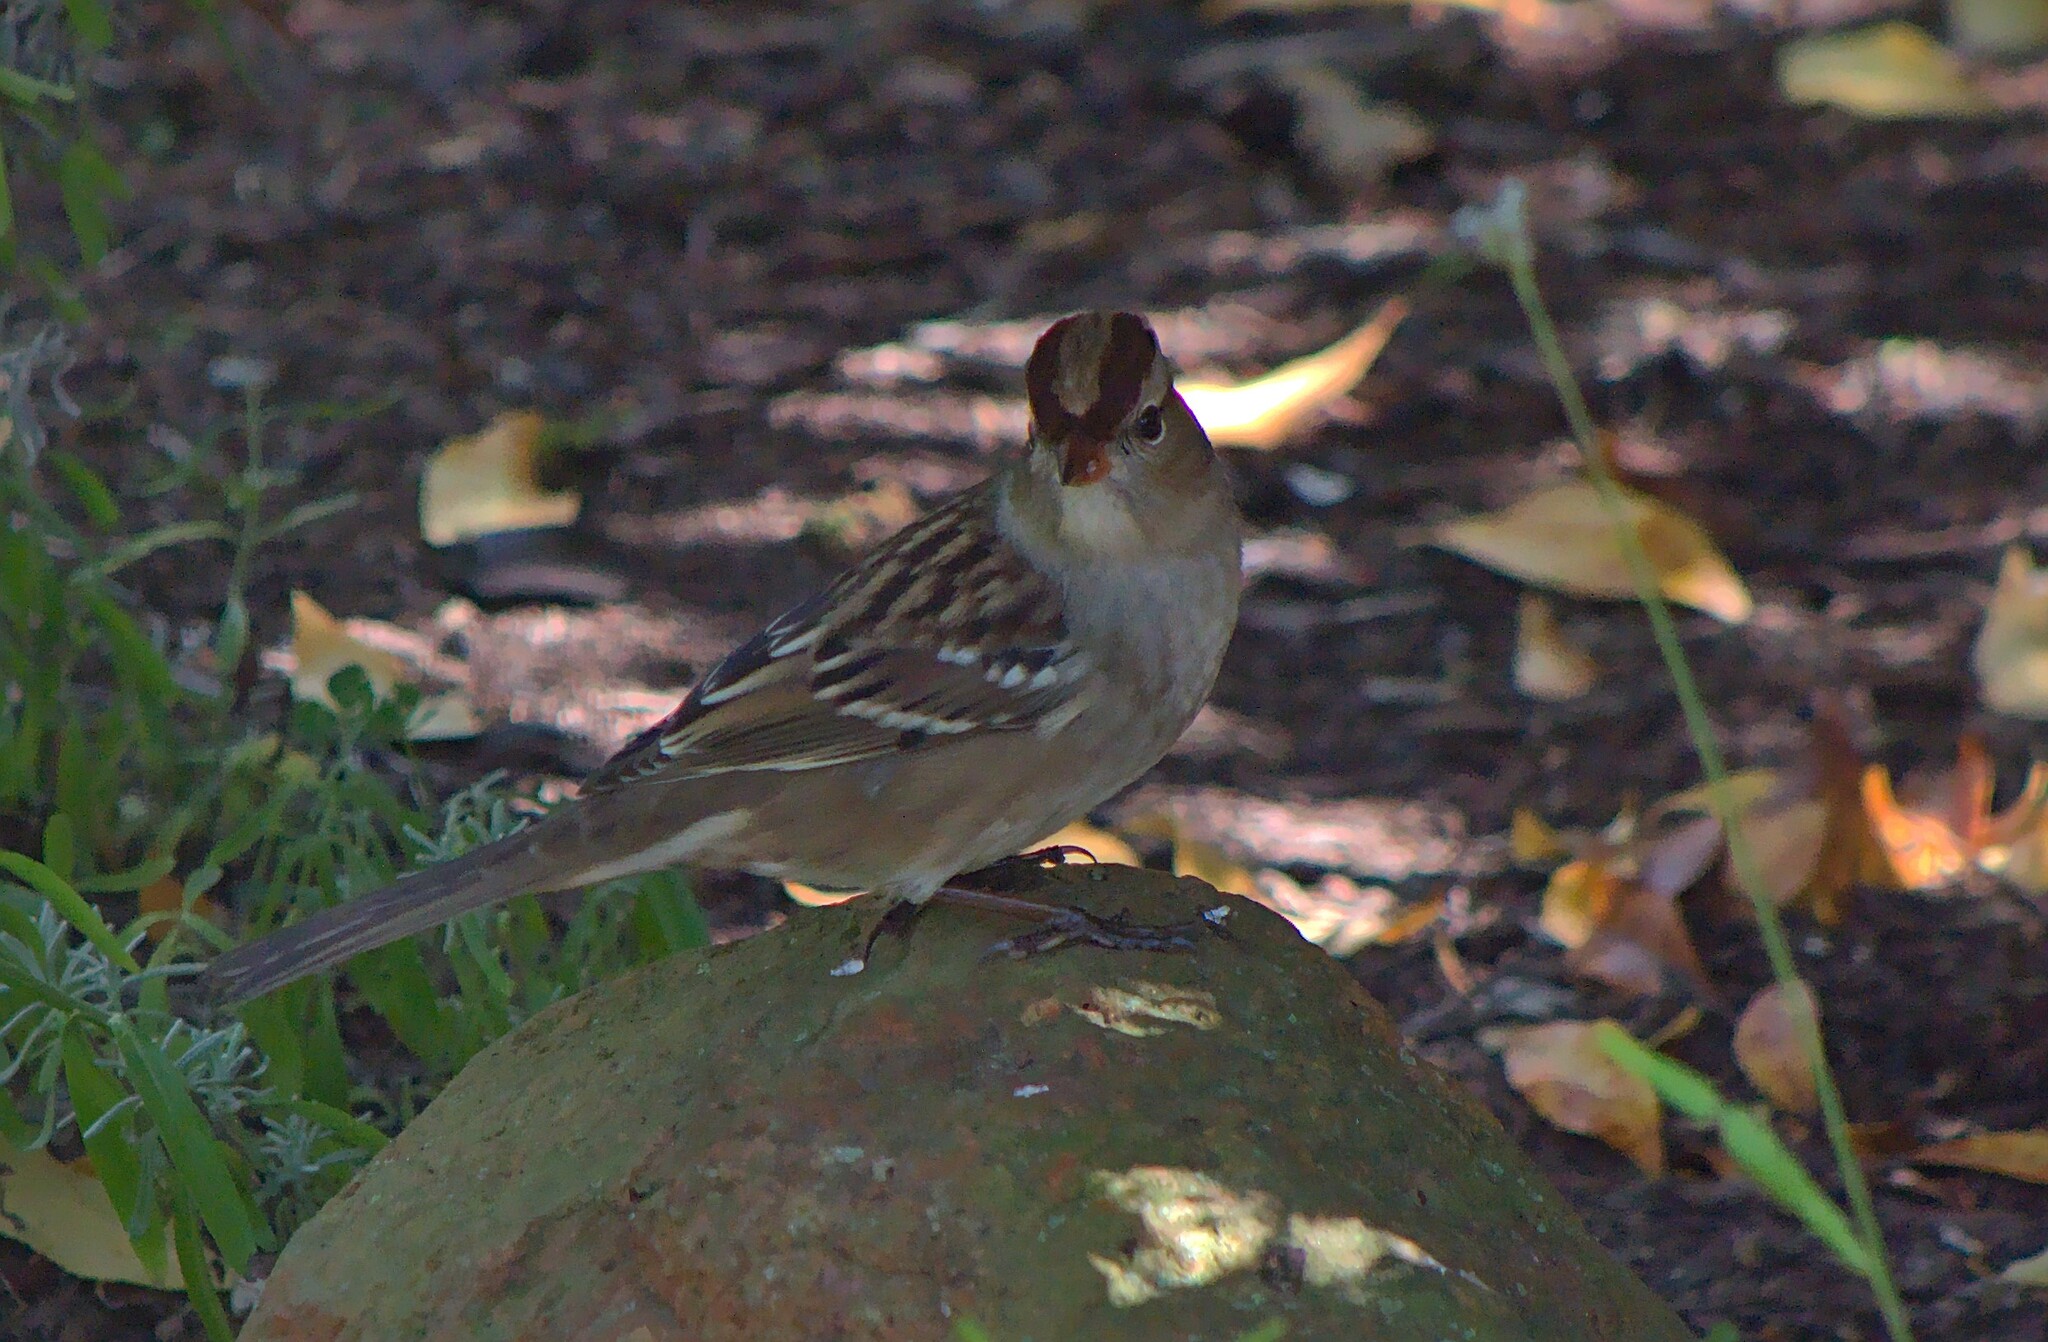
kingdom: Animalia
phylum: Chordata
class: Aves
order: Passeriformes
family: Passerellidae
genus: Zonotrichia
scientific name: Zonotrichia leucophrys
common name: White-crowned sparrow
